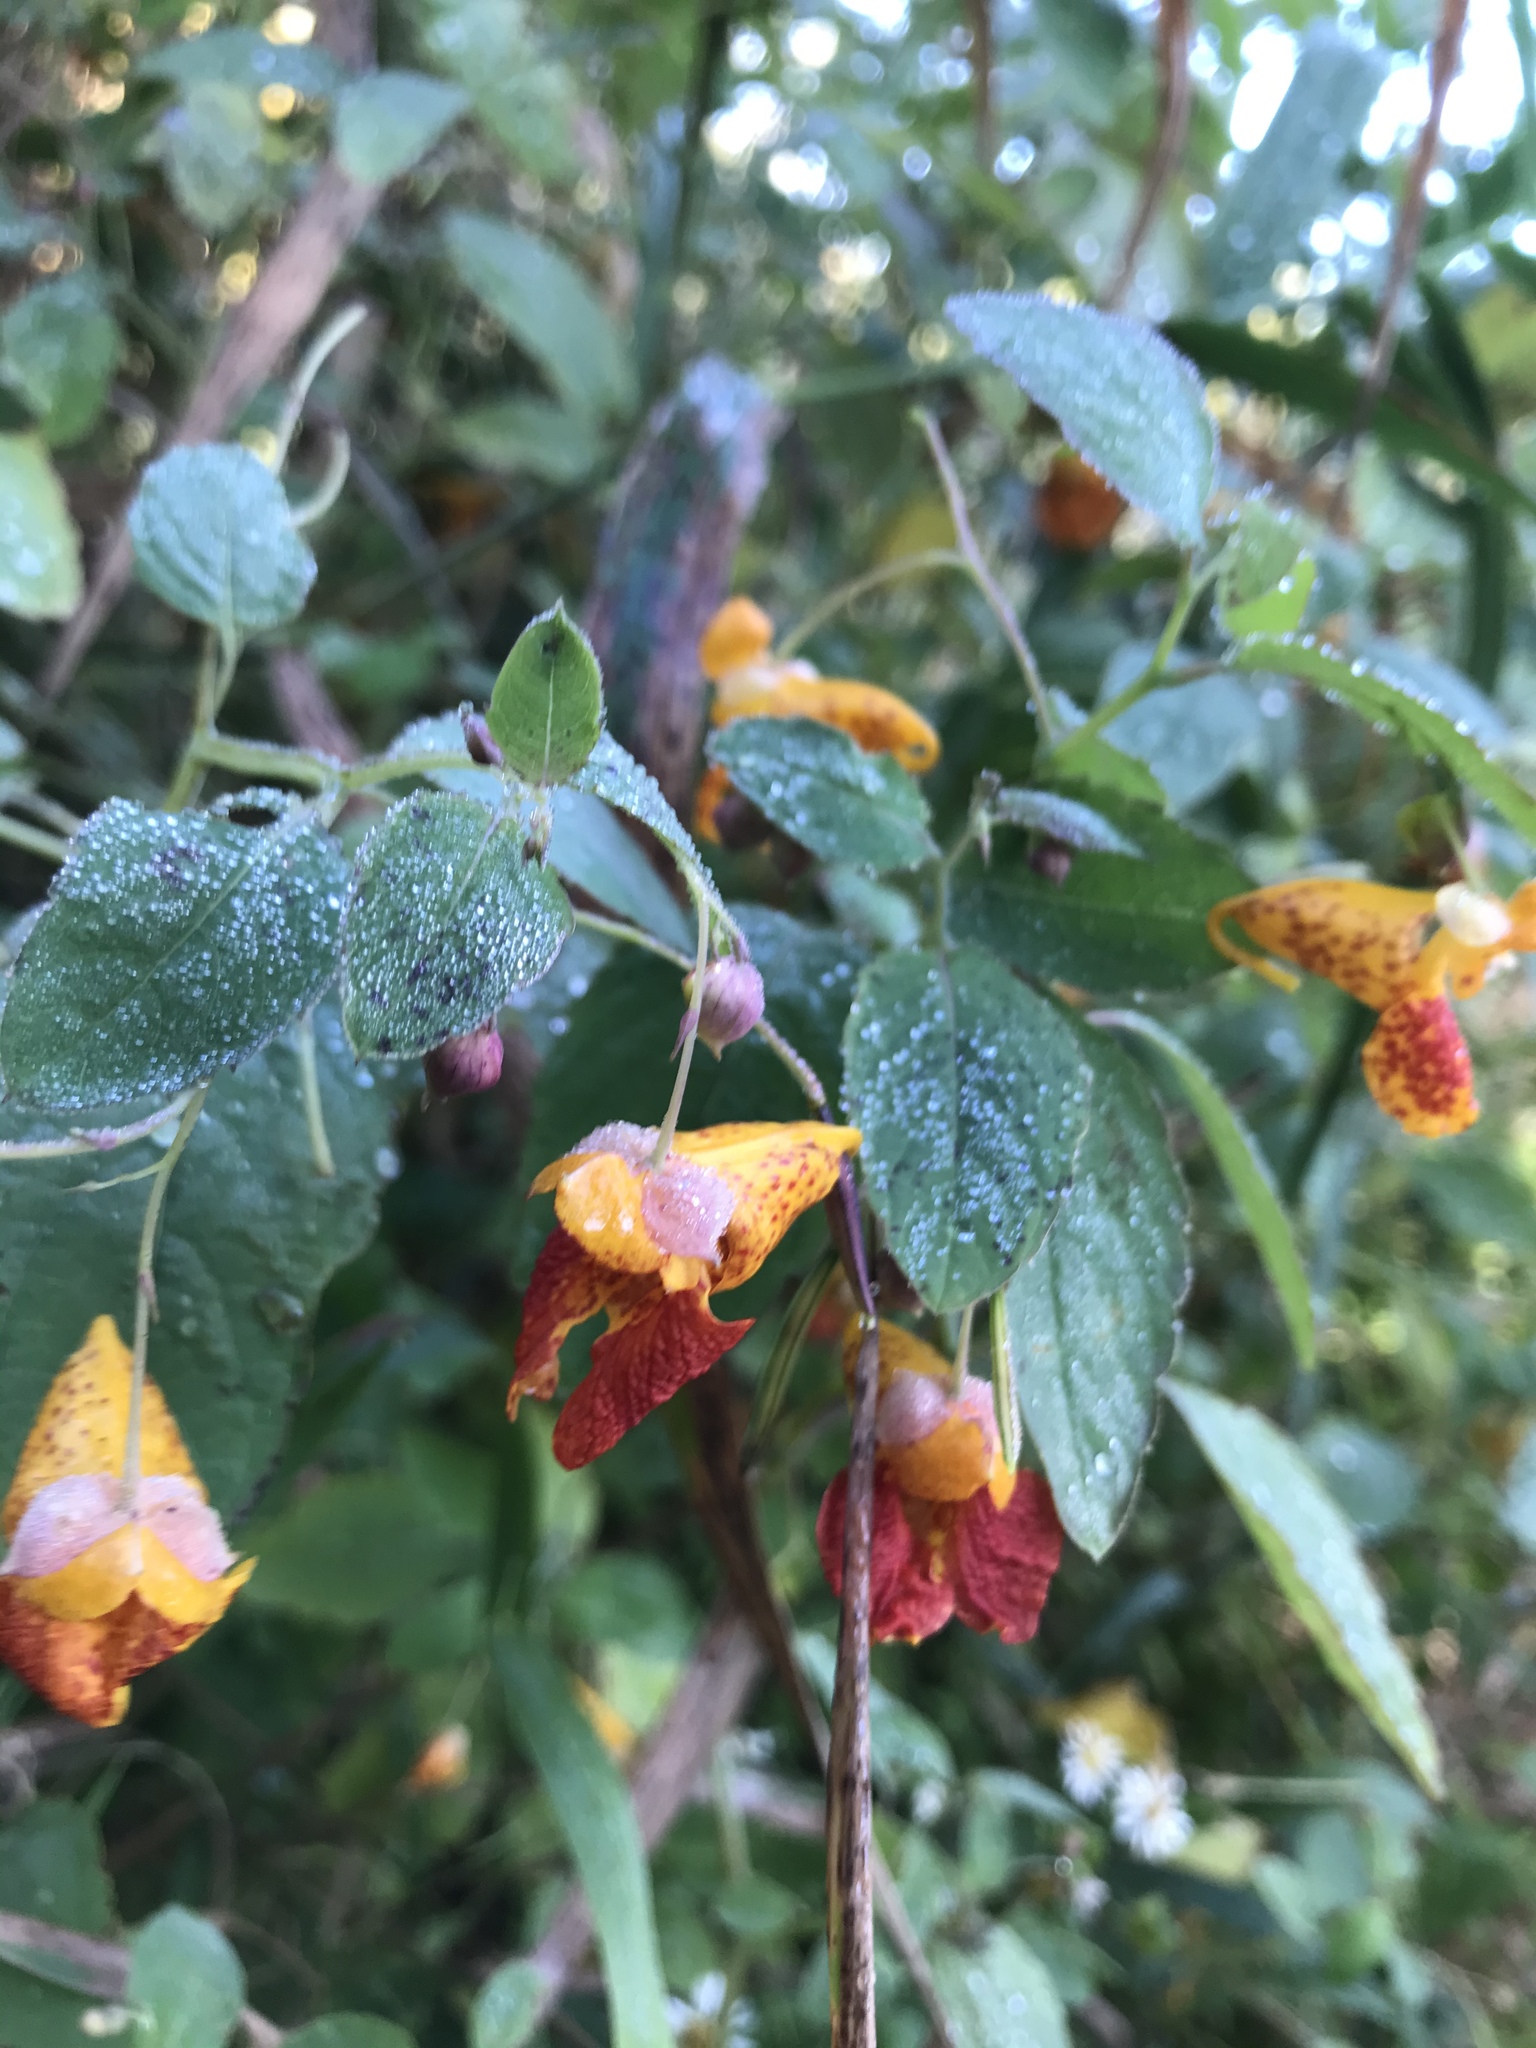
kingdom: Plantae
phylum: Tracheophyta
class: Magnoliopsida
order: Ericales
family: Balsaminaceae
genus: Impatiens
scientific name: Impatiens capensis
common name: Orange balsam
